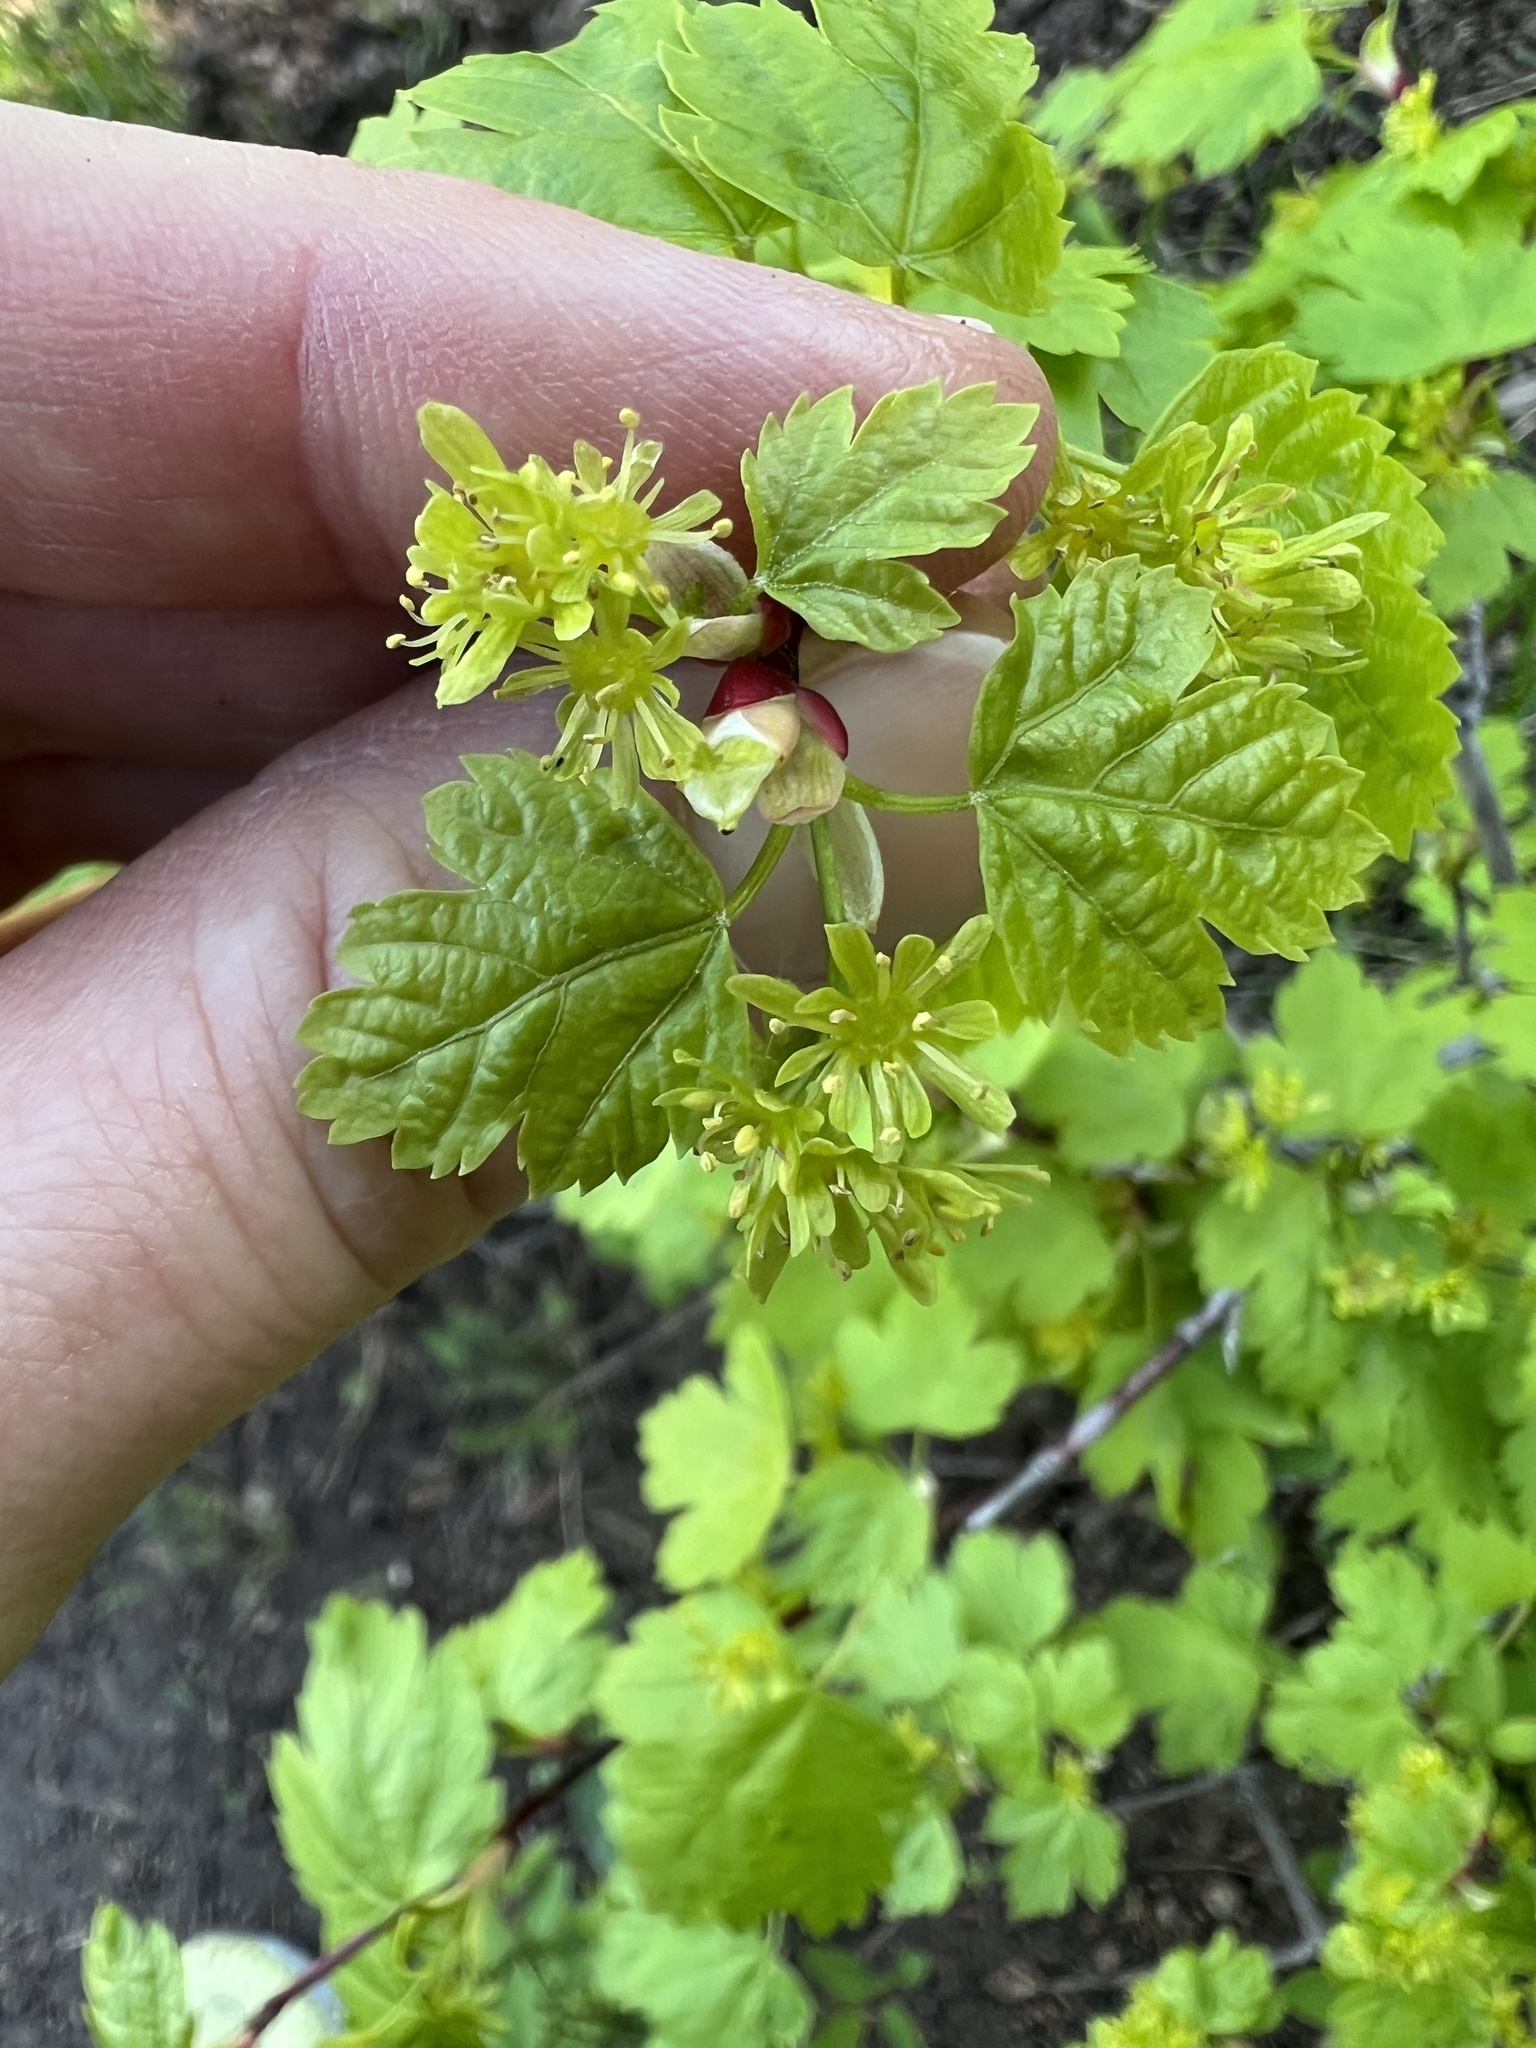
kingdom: Plantae
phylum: Tracheophyta
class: Magnoliopsida
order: Sapindales
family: Sapindaceae
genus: Acer
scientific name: Acer glabrum
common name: Rocky mountain maple
